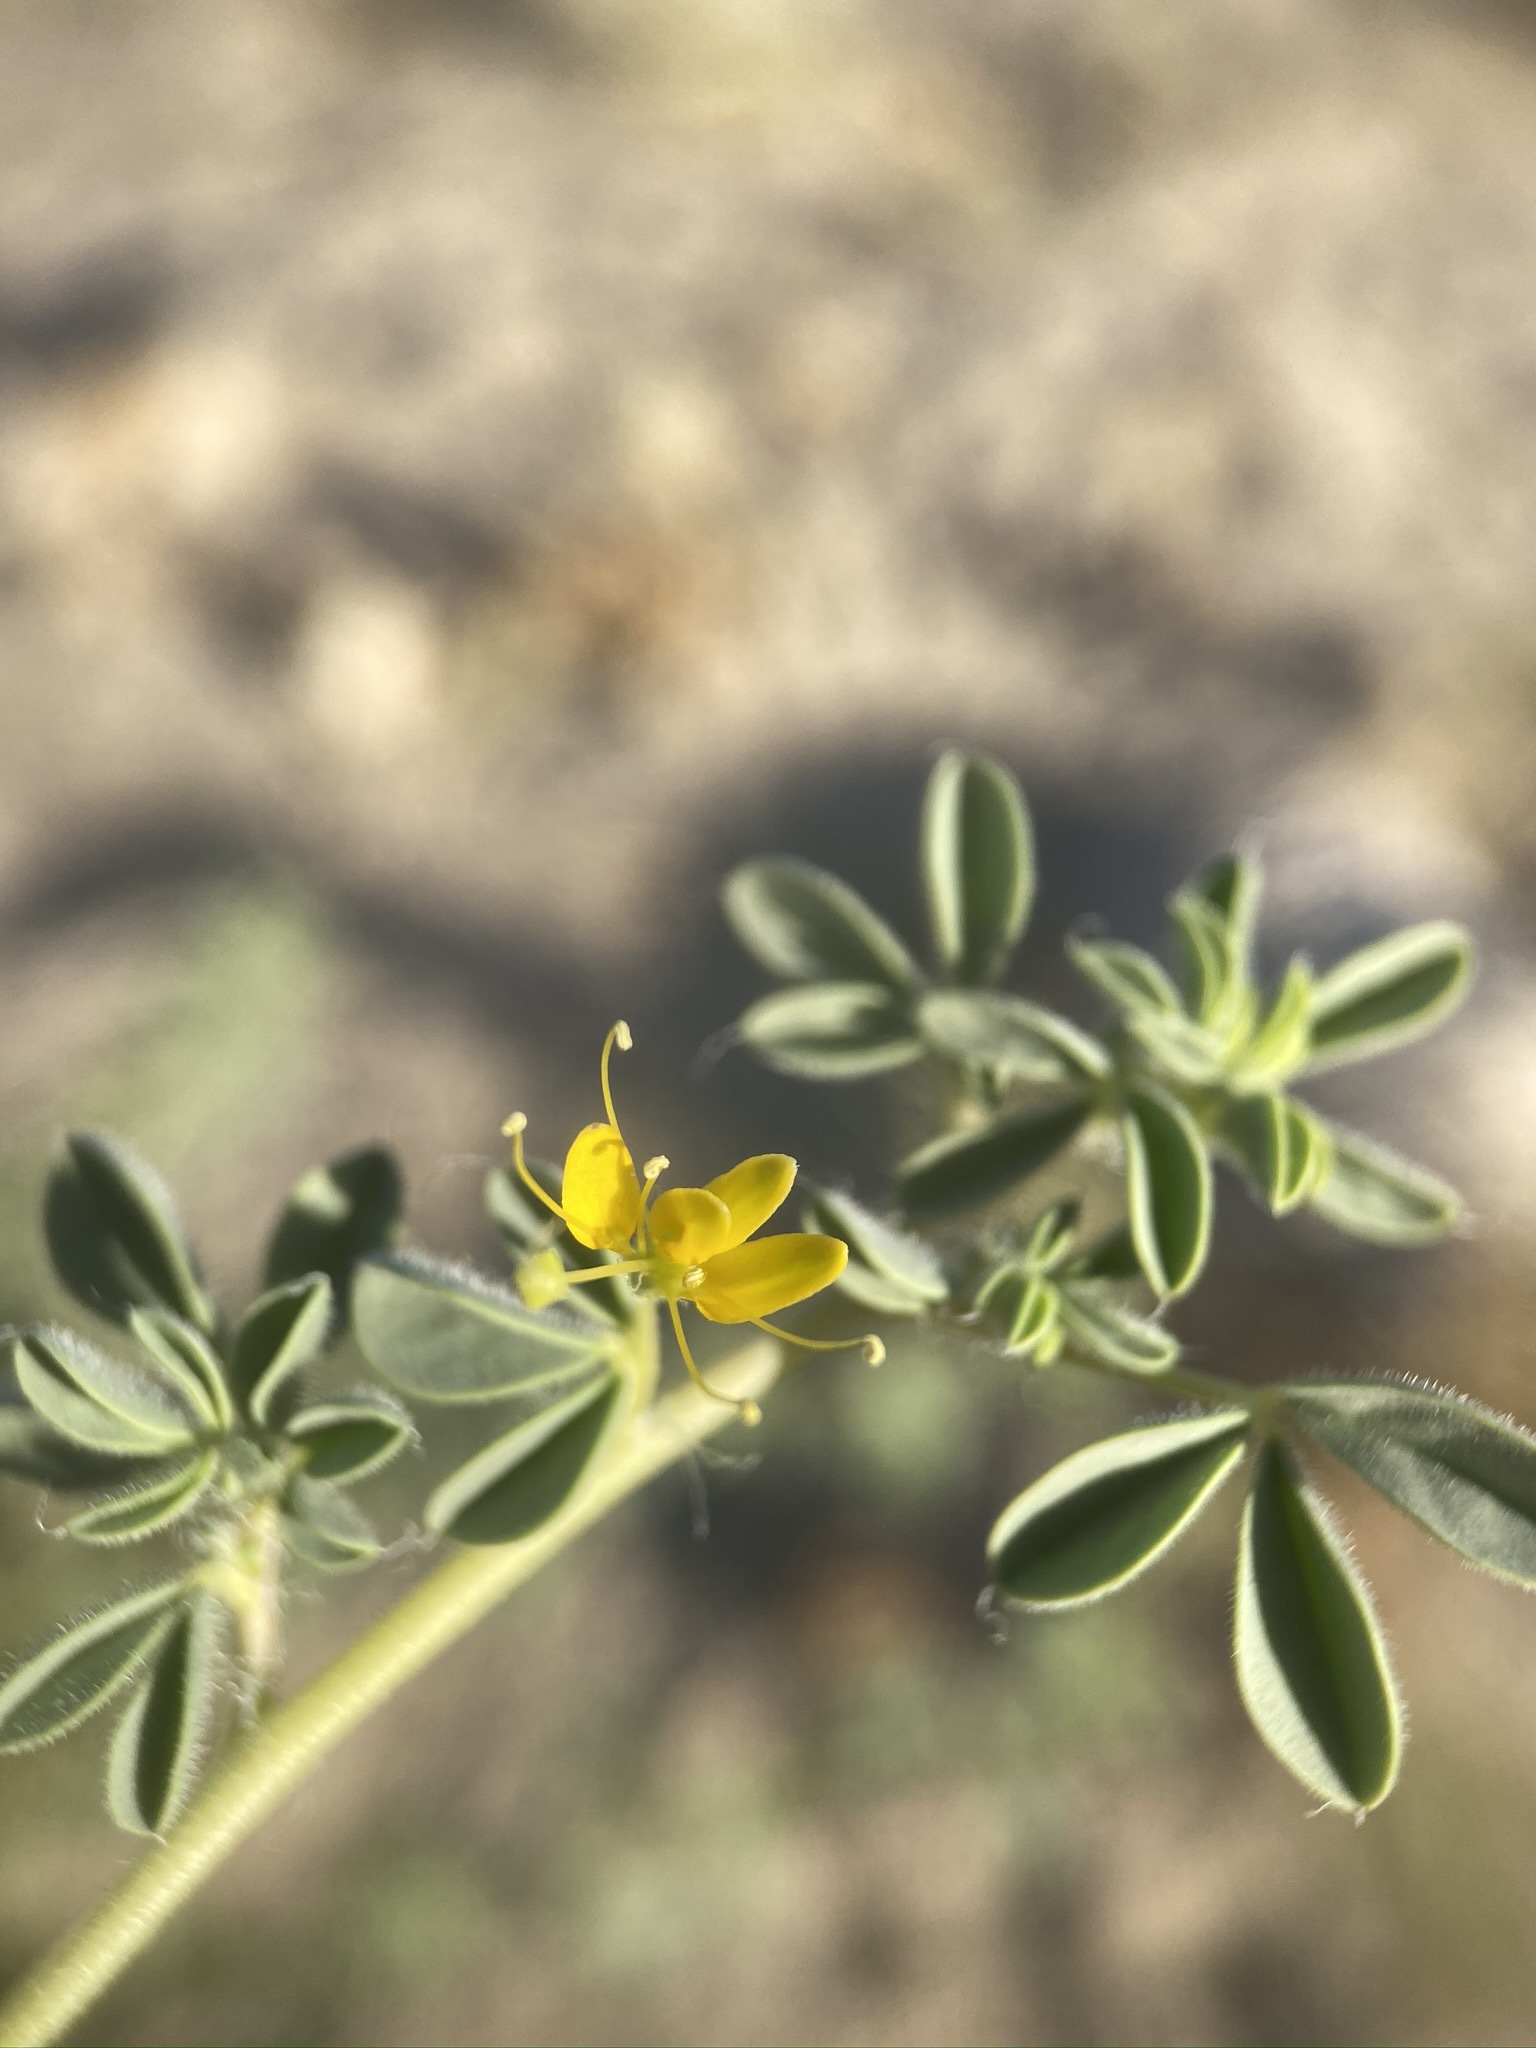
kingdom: Plantae
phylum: Tracheophyta
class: Magnoliopsida
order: Brassicales
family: Cleomaceae
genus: Cleomella
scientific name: Cleomella obtusifolia
